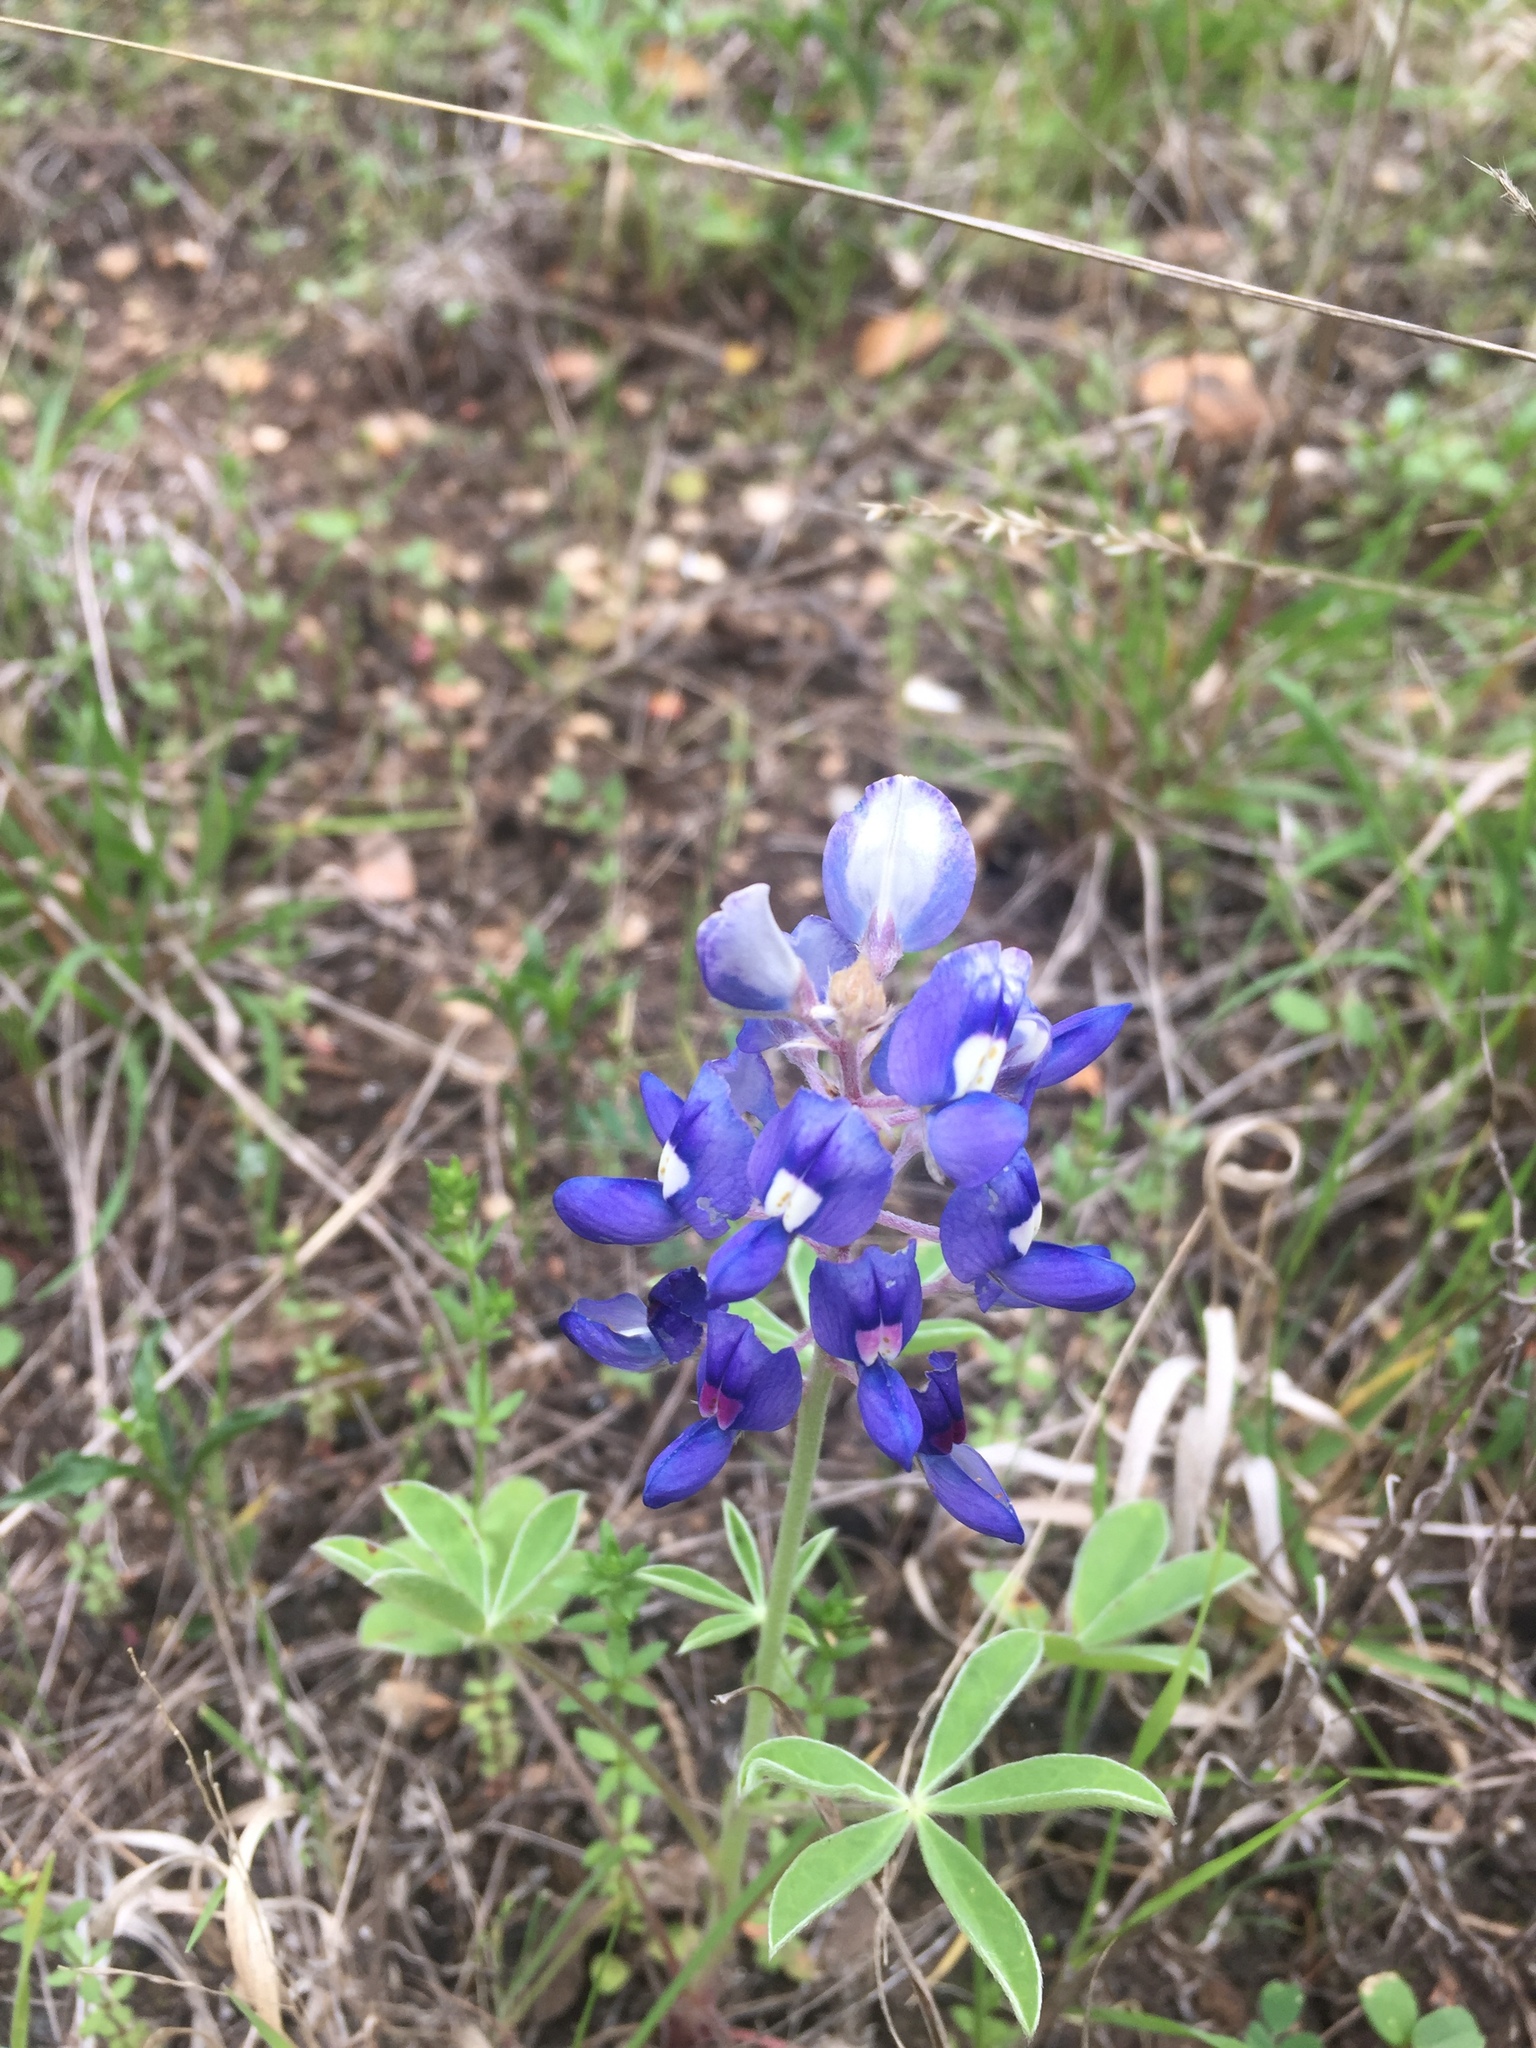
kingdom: Plantae
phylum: Tracheophyta
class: Magnoliopsida
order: Fabales
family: Fabaceae
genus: Lupinus
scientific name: Lupinus texensis
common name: Texas bluebonnet
